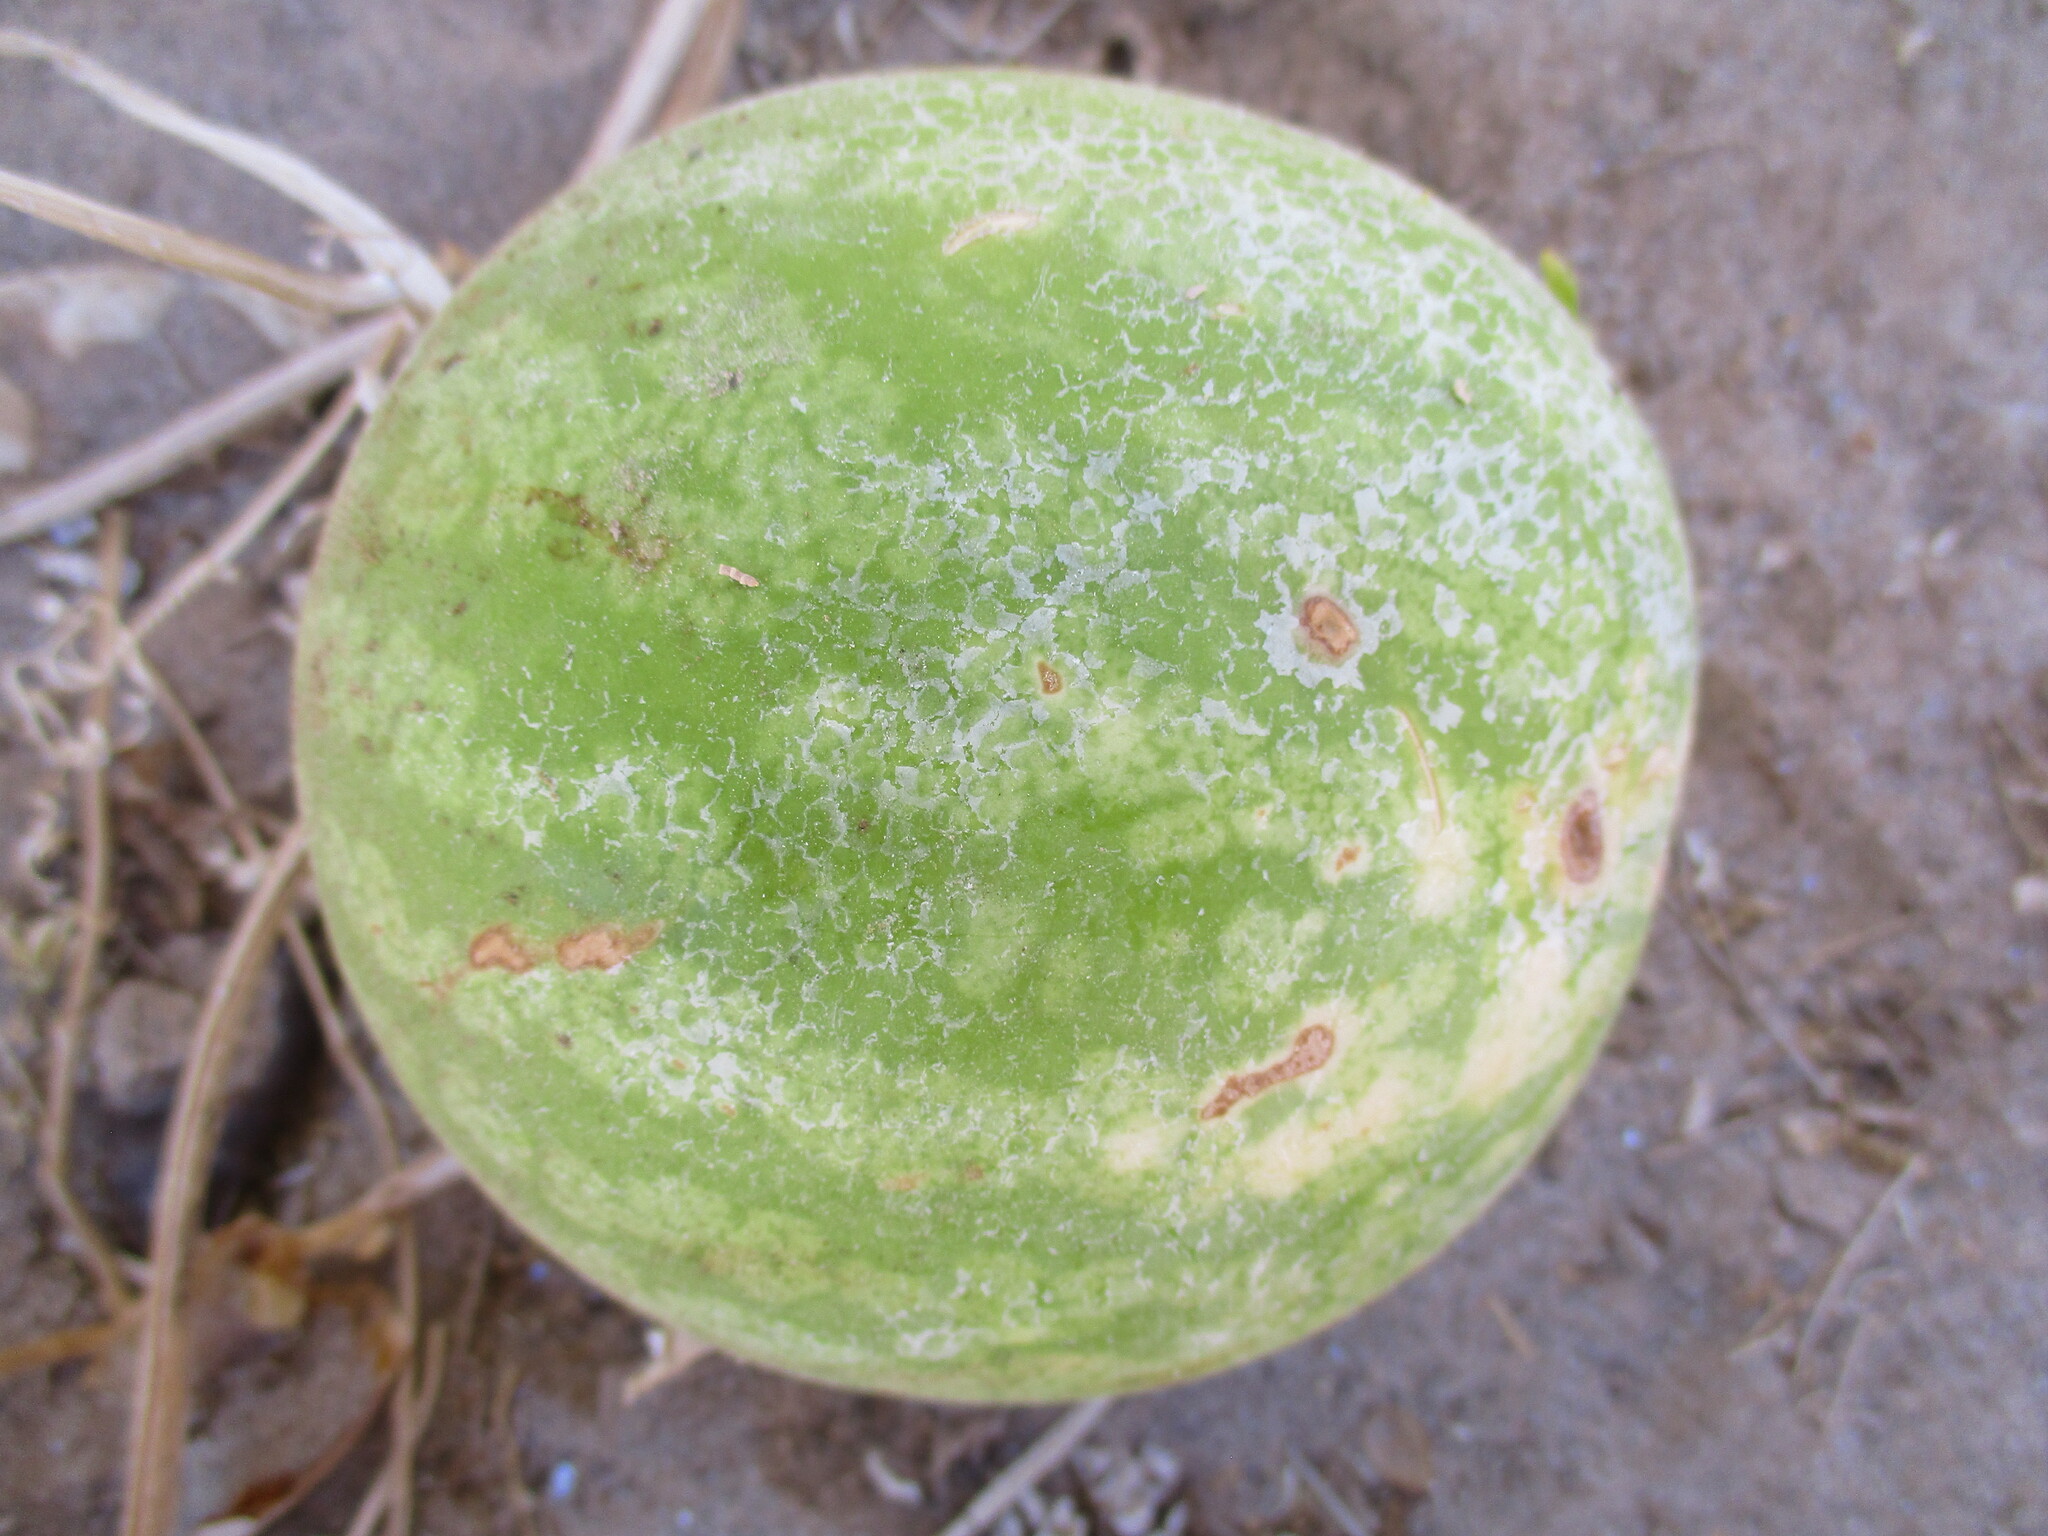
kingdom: Plantae
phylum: Tracheophyta
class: Magnoliopsida
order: Cucurbitales
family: Cucurbitaceae
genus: Citrullus
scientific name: Citrullus amarus
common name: Fodder-melon
